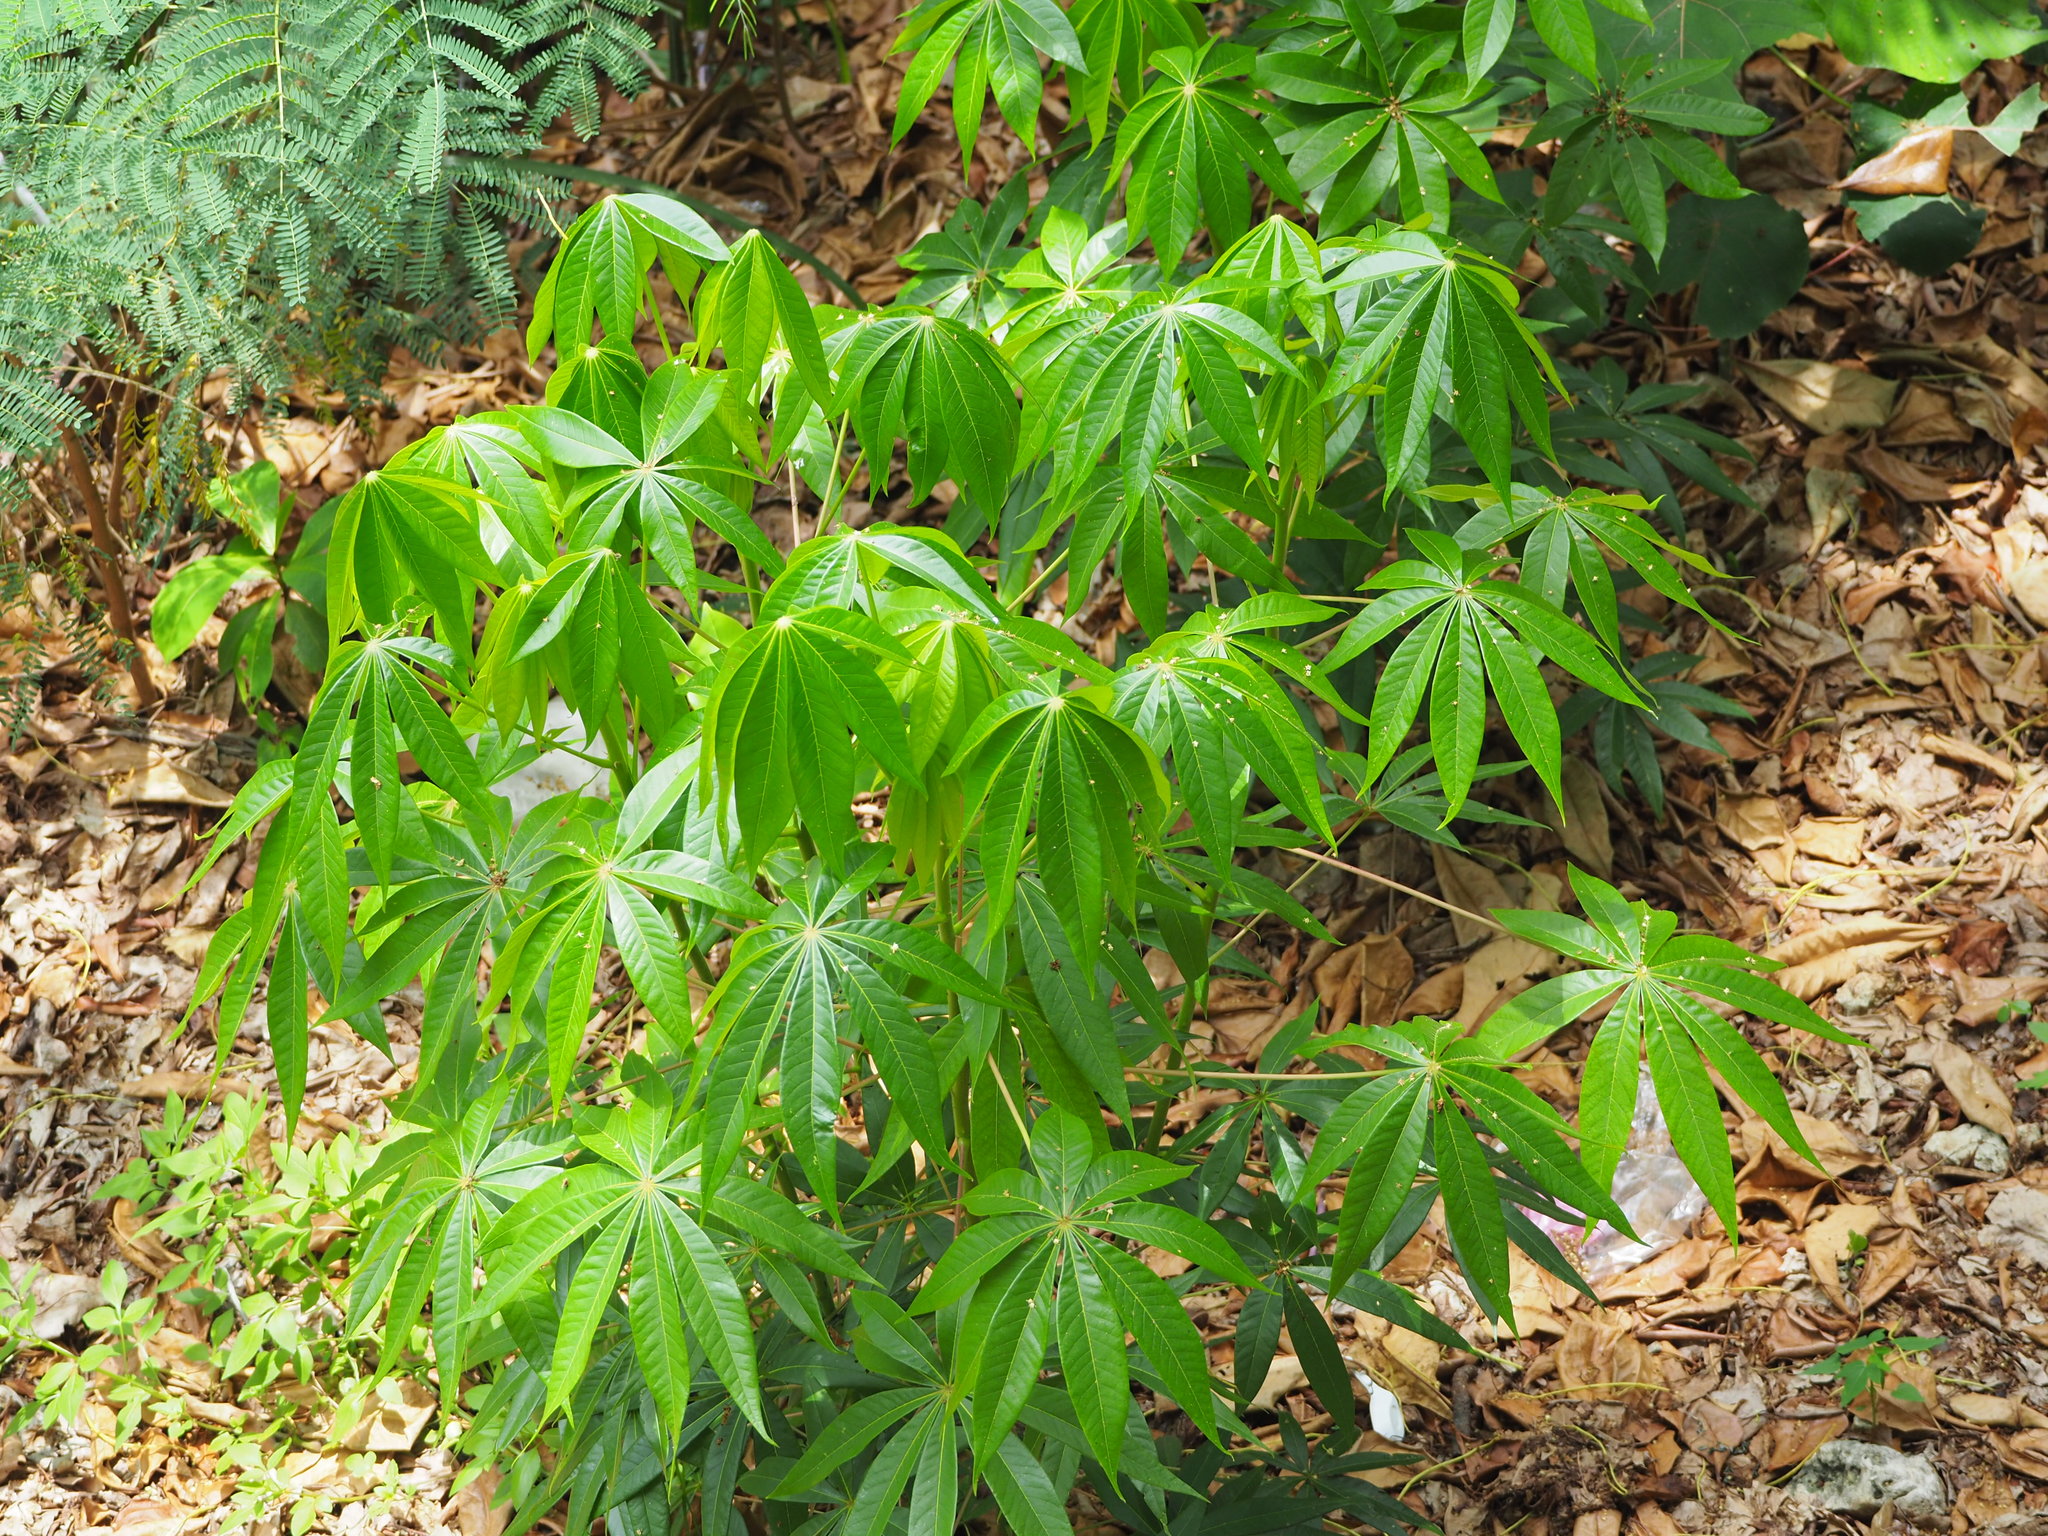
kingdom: Plantae
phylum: Tracheophyta
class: Magnoliopsida
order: Malpighiales
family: Euphorbiaceae
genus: Manihot
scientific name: Manihot esculenta
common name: Cassava
